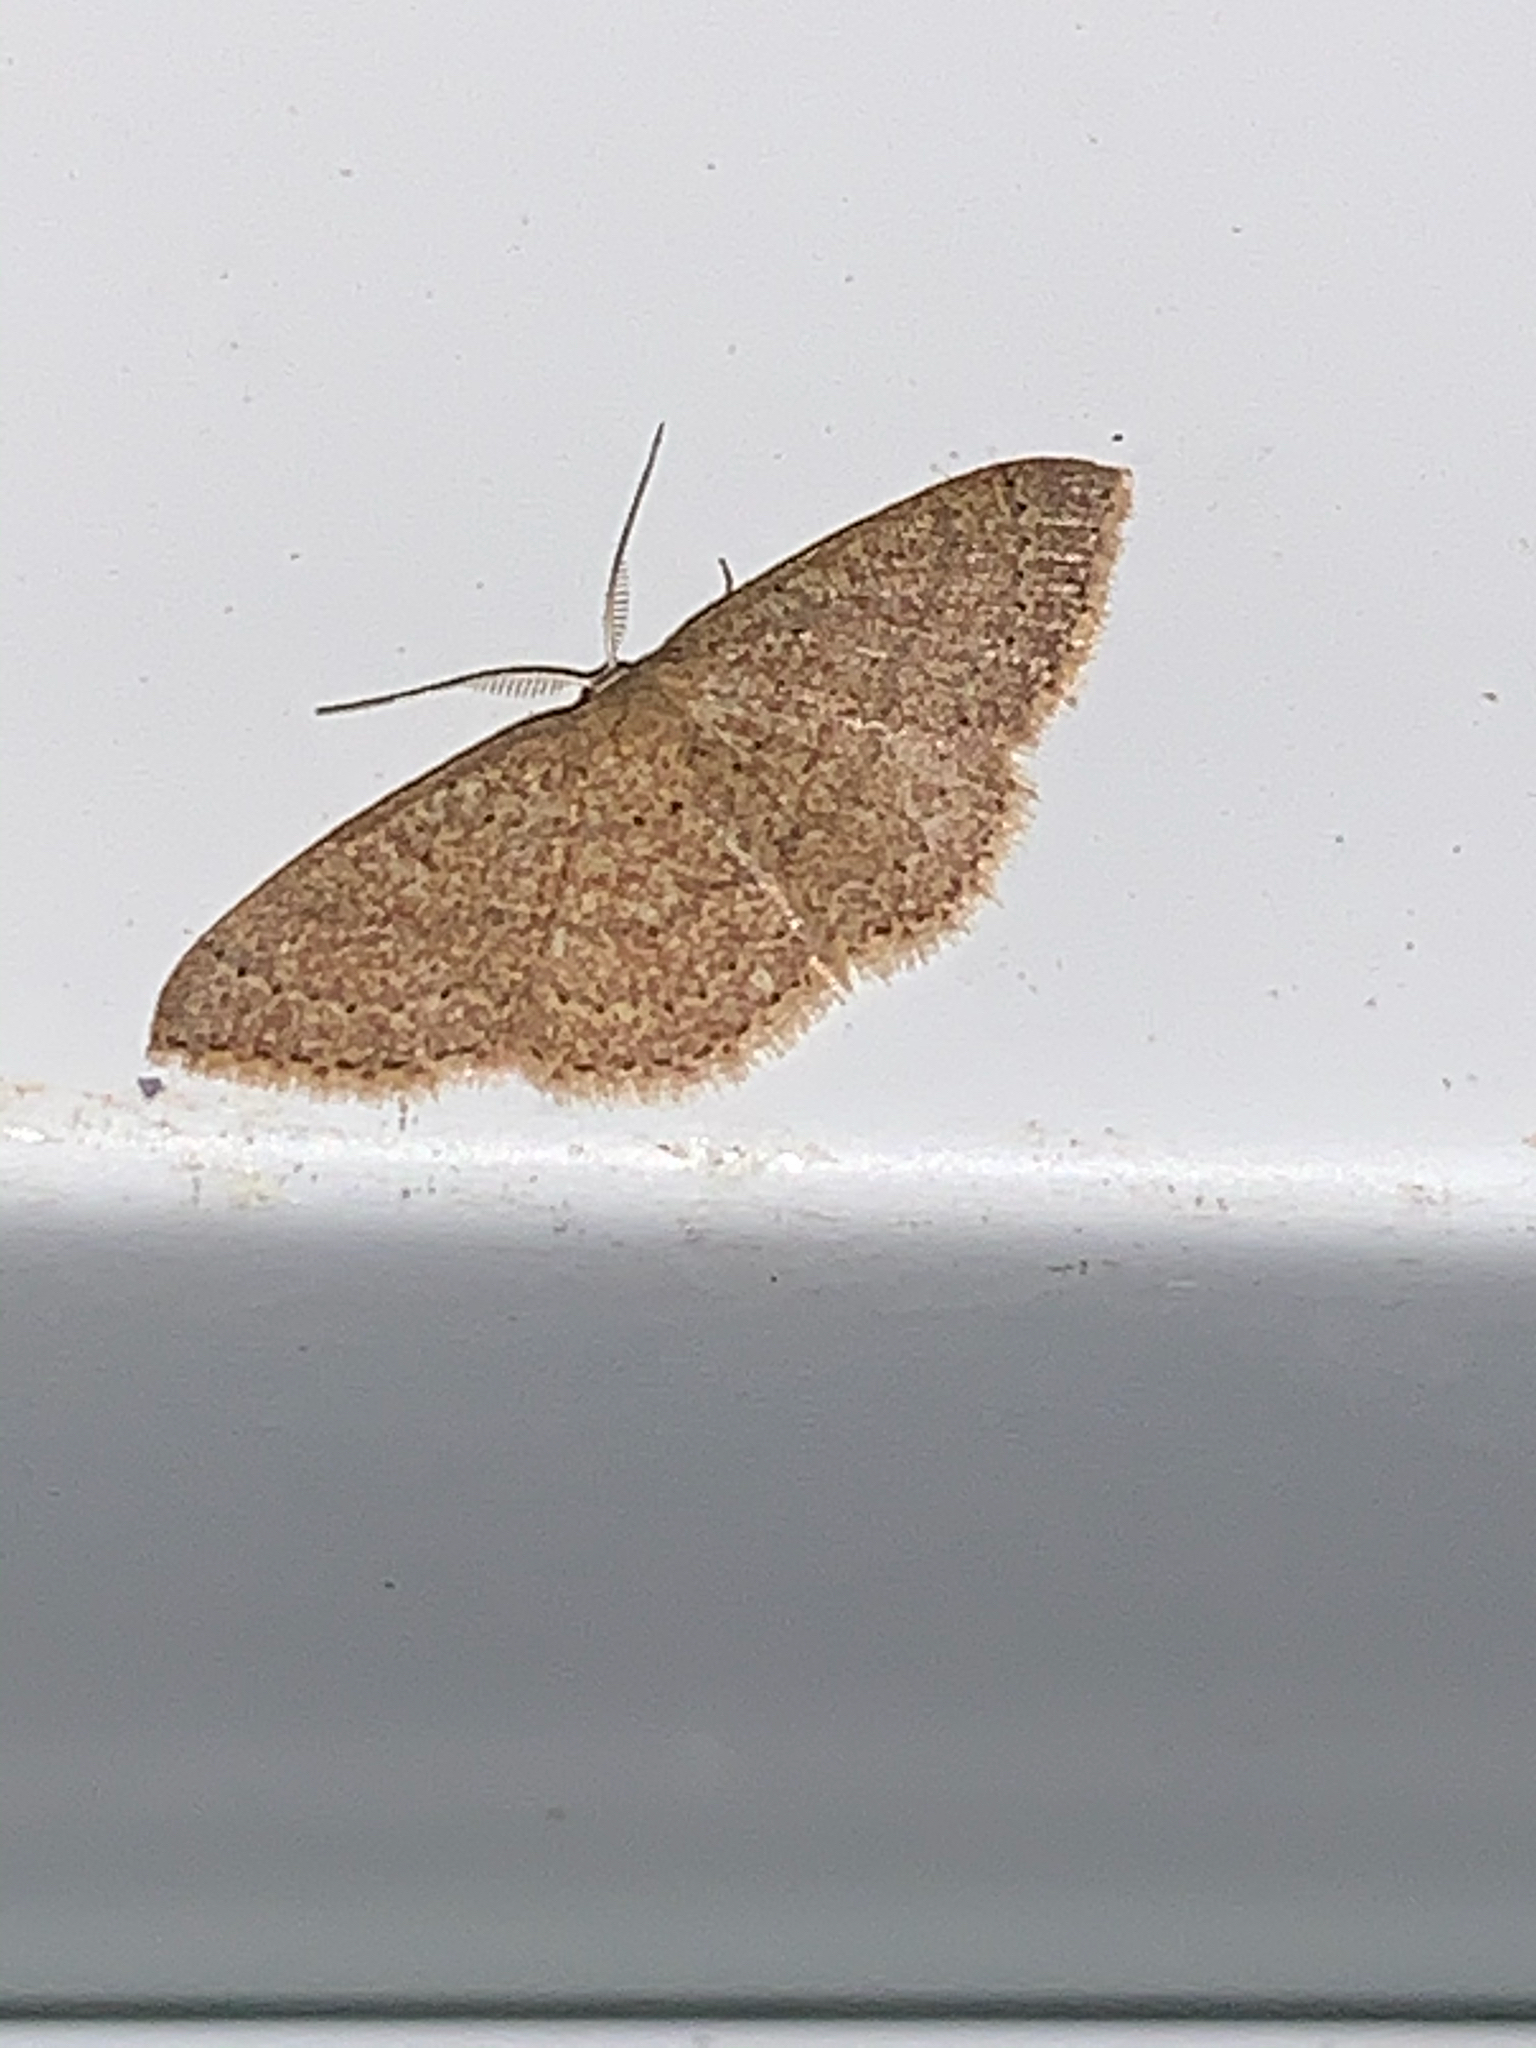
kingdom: Animalia
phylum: Arthropoda
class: Insecta
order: Lepidoptera
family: Geometridae
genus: Pleuroprucha
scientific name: Pleuroprucha insulsaria
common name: Common tan wave
